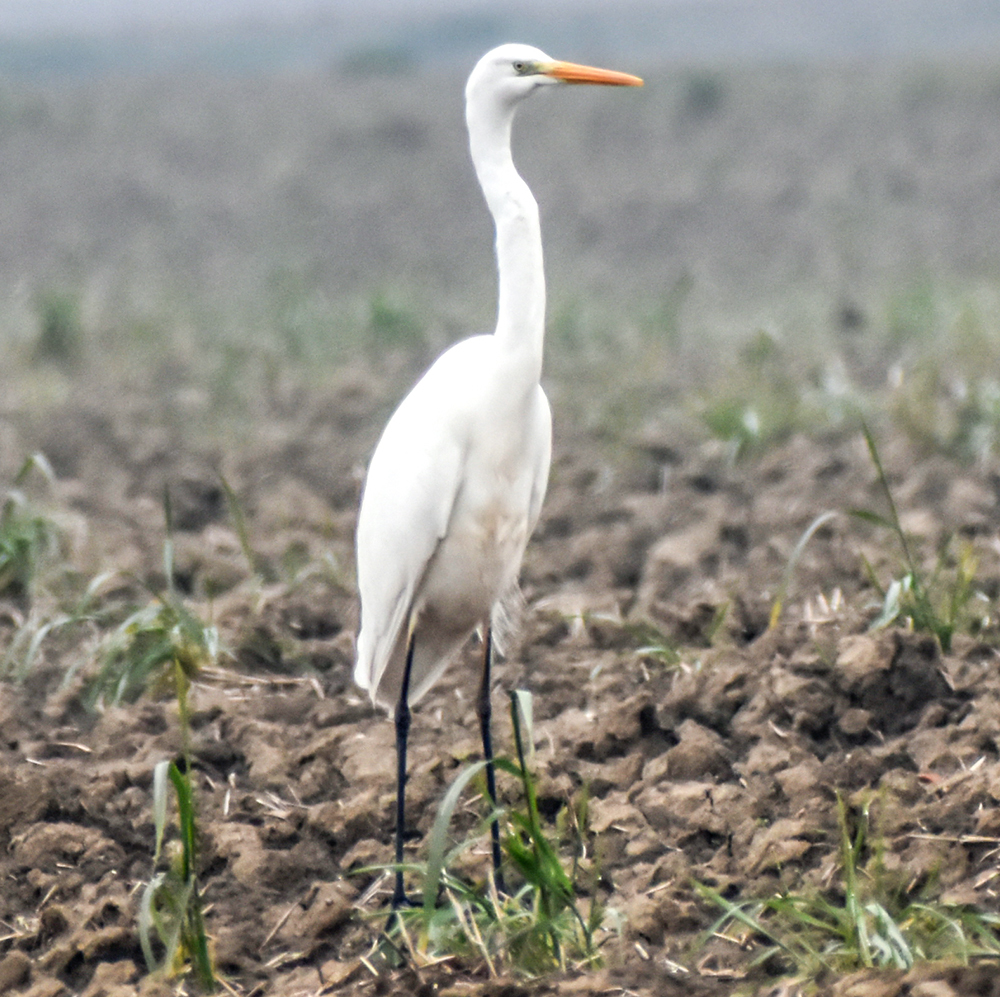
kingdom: Animalia
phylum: Chordata
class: Aves
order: Pelecaniformes
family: Ardeidae
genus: Ardea
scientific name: Ardea alba
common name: Great egret
